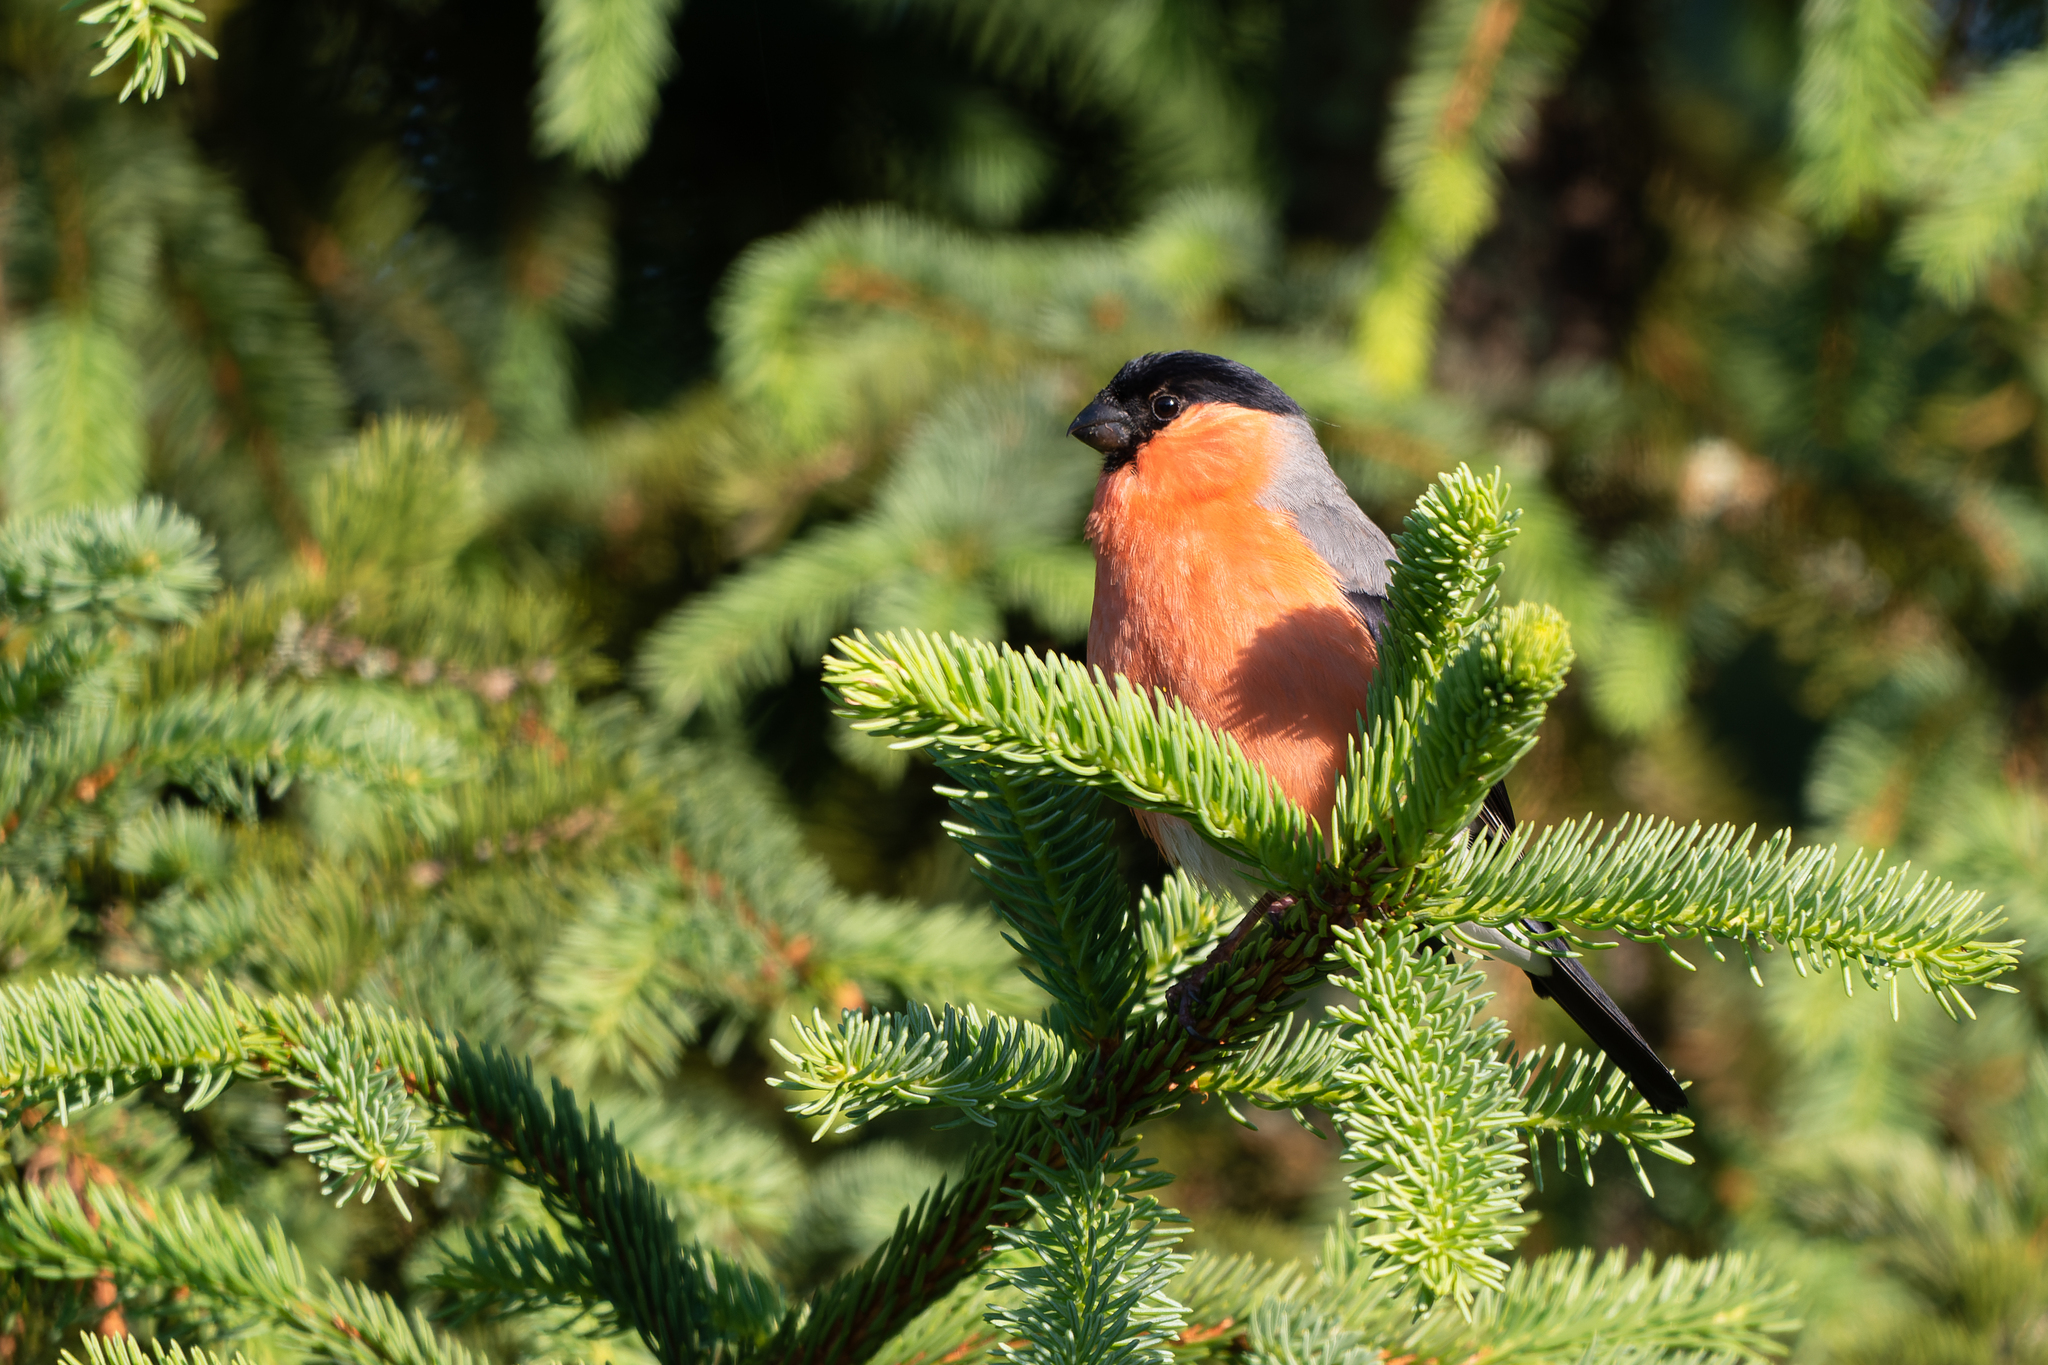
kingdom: Animalia
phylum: Chordata
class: Aves
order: Passeriformes
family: Fringillidae
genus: Pyrrhula
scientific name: Pyrrhula pyrrhula
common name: Eurasian bullfinch
